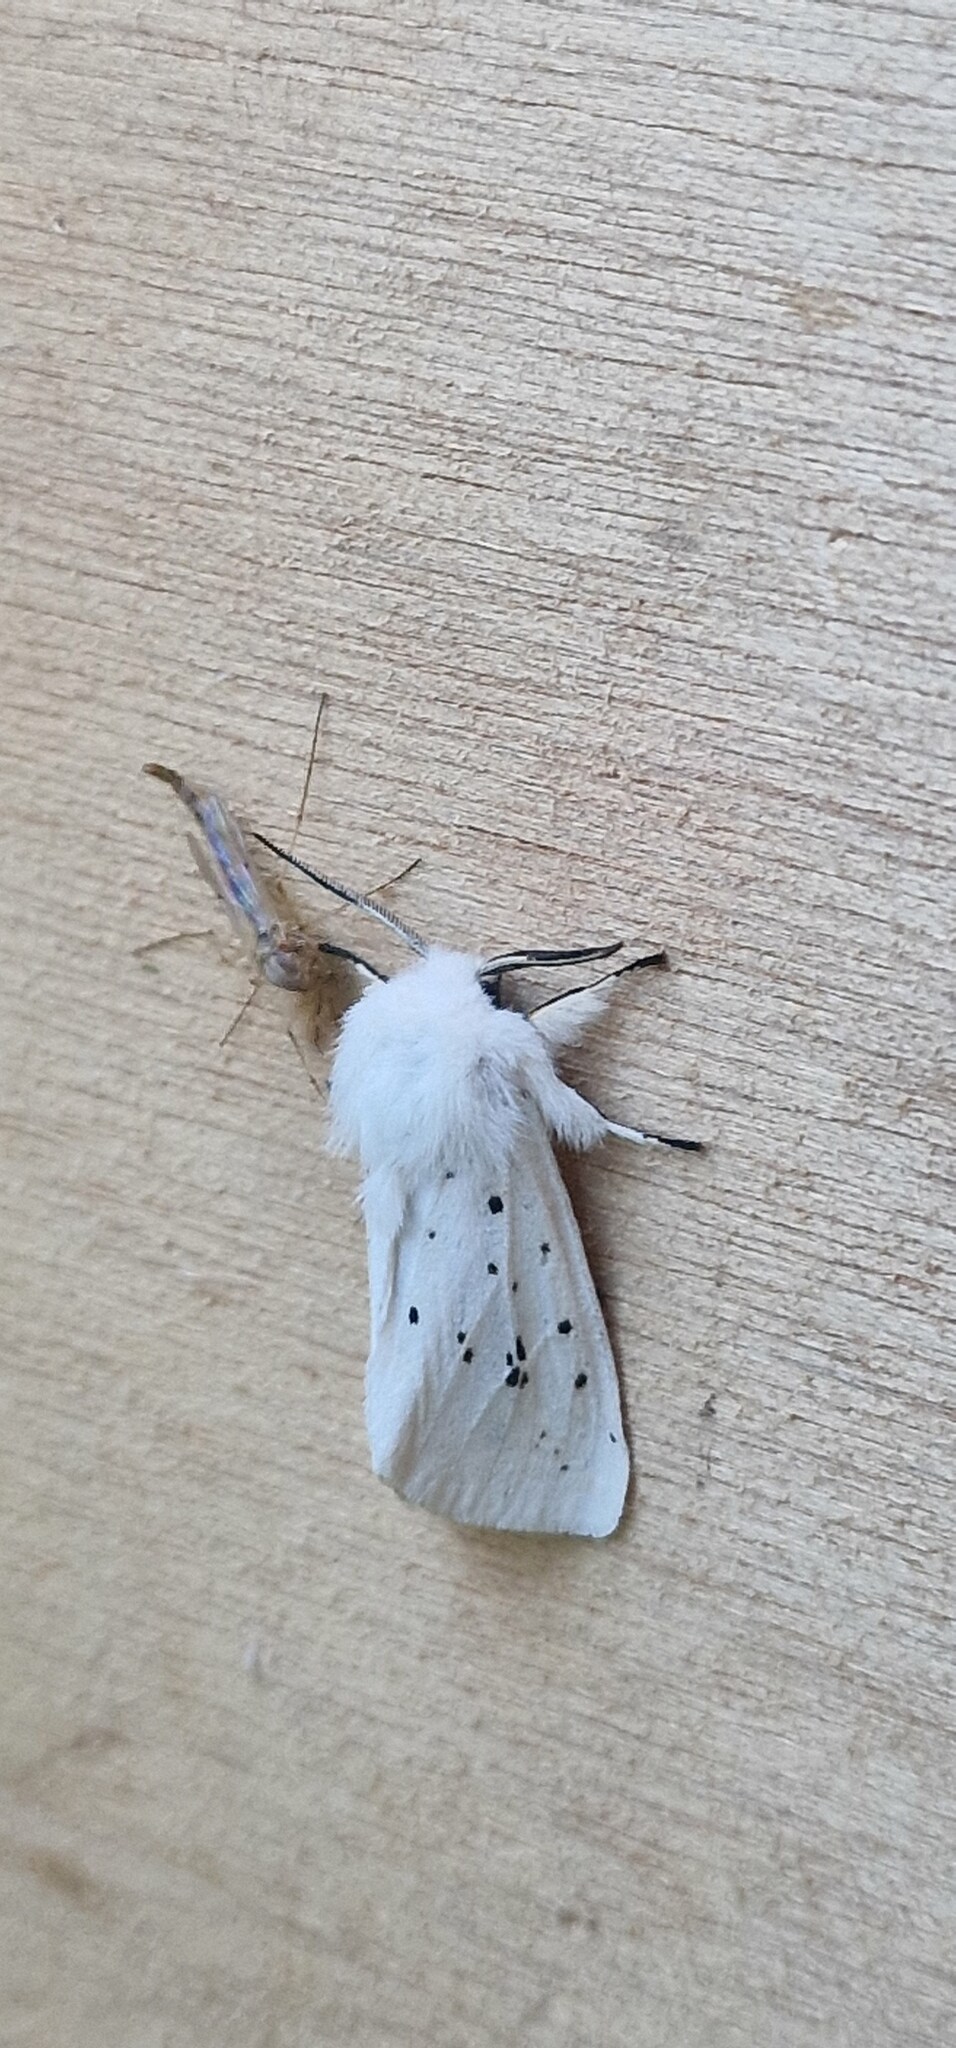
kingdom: Animalia
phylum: Arthropoda
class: Insecta
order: Lepidoptera
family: Erebidae
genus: Spilosoma
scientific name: Spilosoma lubricipeda
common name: White ermine
